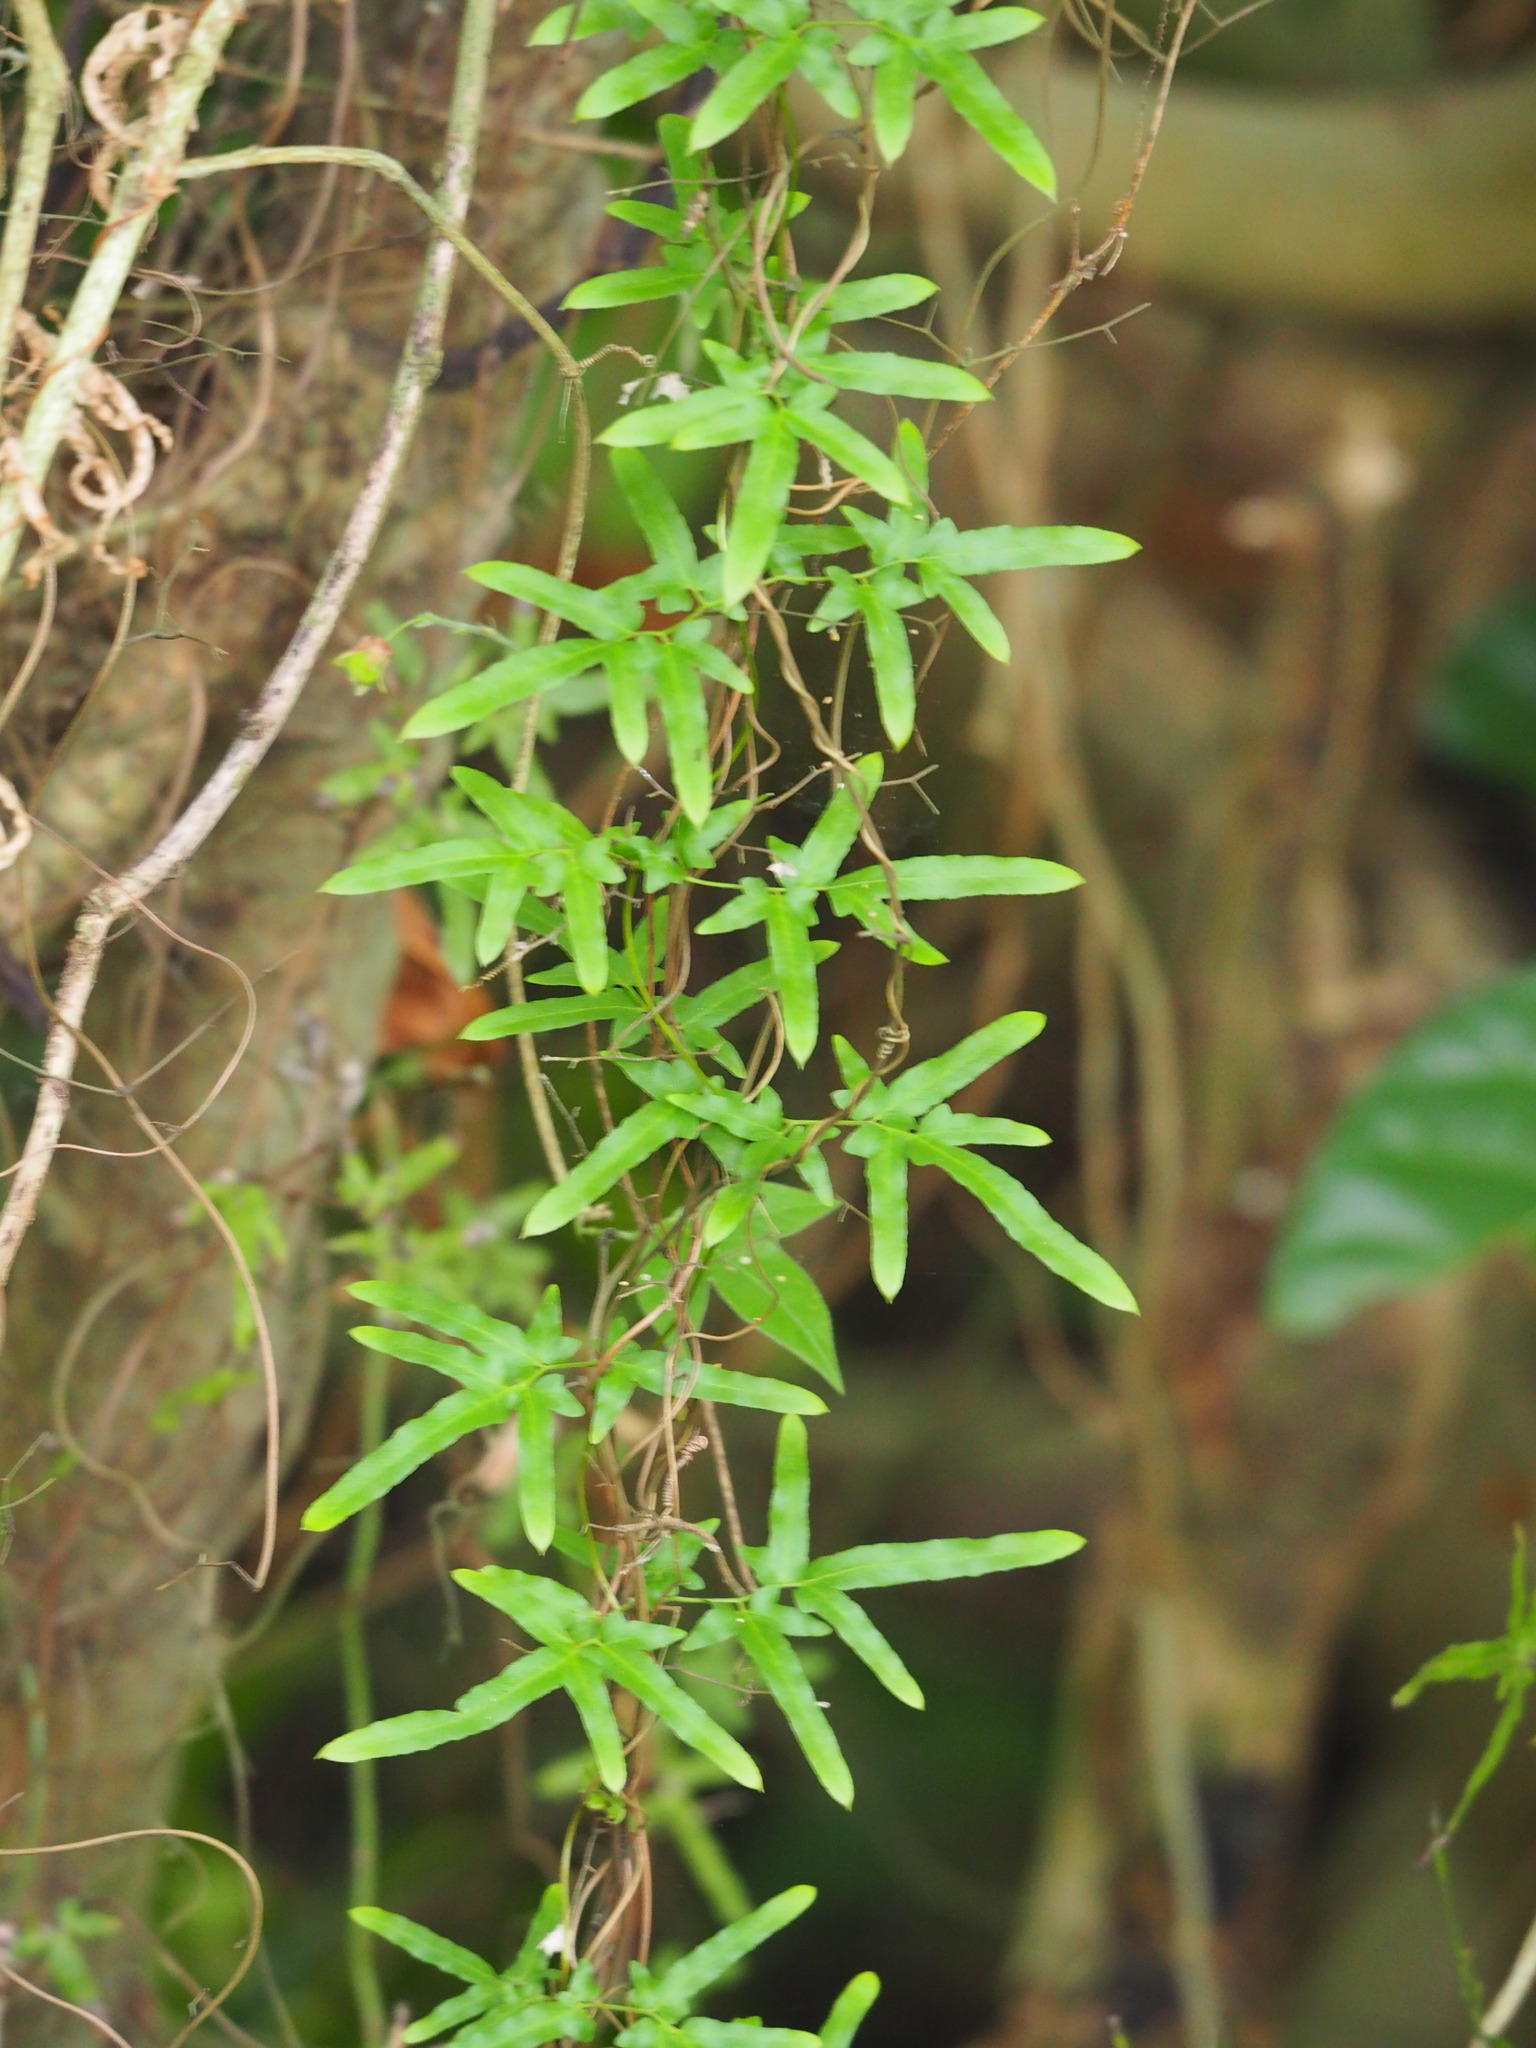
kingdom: Plantae
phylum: Tracheophyta
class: Polypodiopsida
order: Schizaeales
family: Lygodiaceae
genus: Lygodium
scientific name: Lygodium japonicum
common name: Japanese climbing fern
